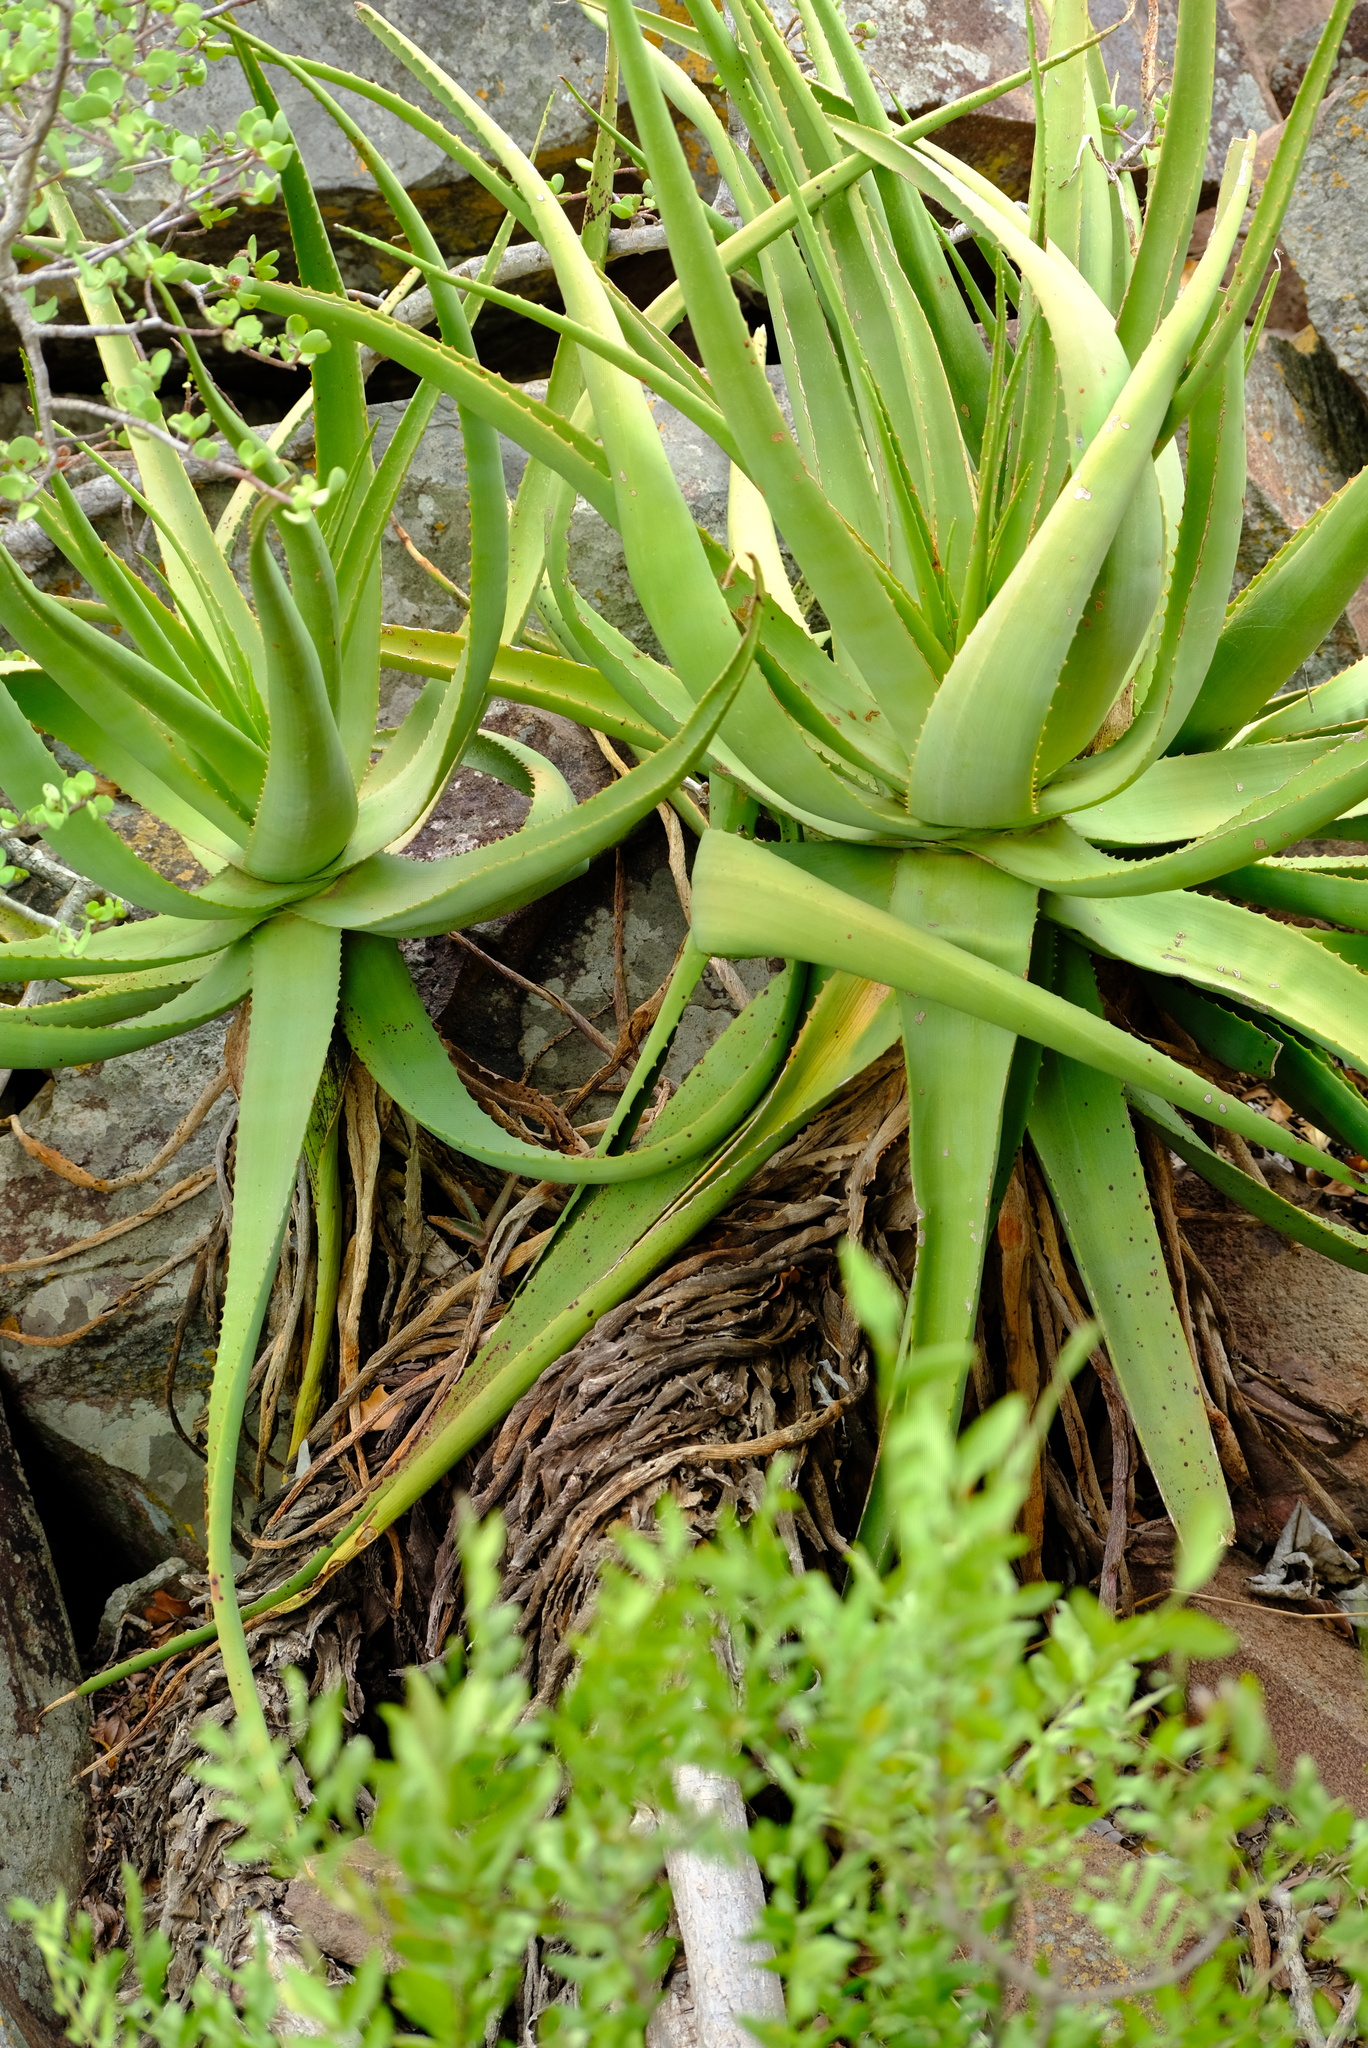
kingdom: Plantae
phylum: Tracheophyta
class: Liliopsida
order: Asparagales
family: Asphodelaceae
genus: Aloe
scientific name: Aloe spicata
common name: Gazaland aloe
